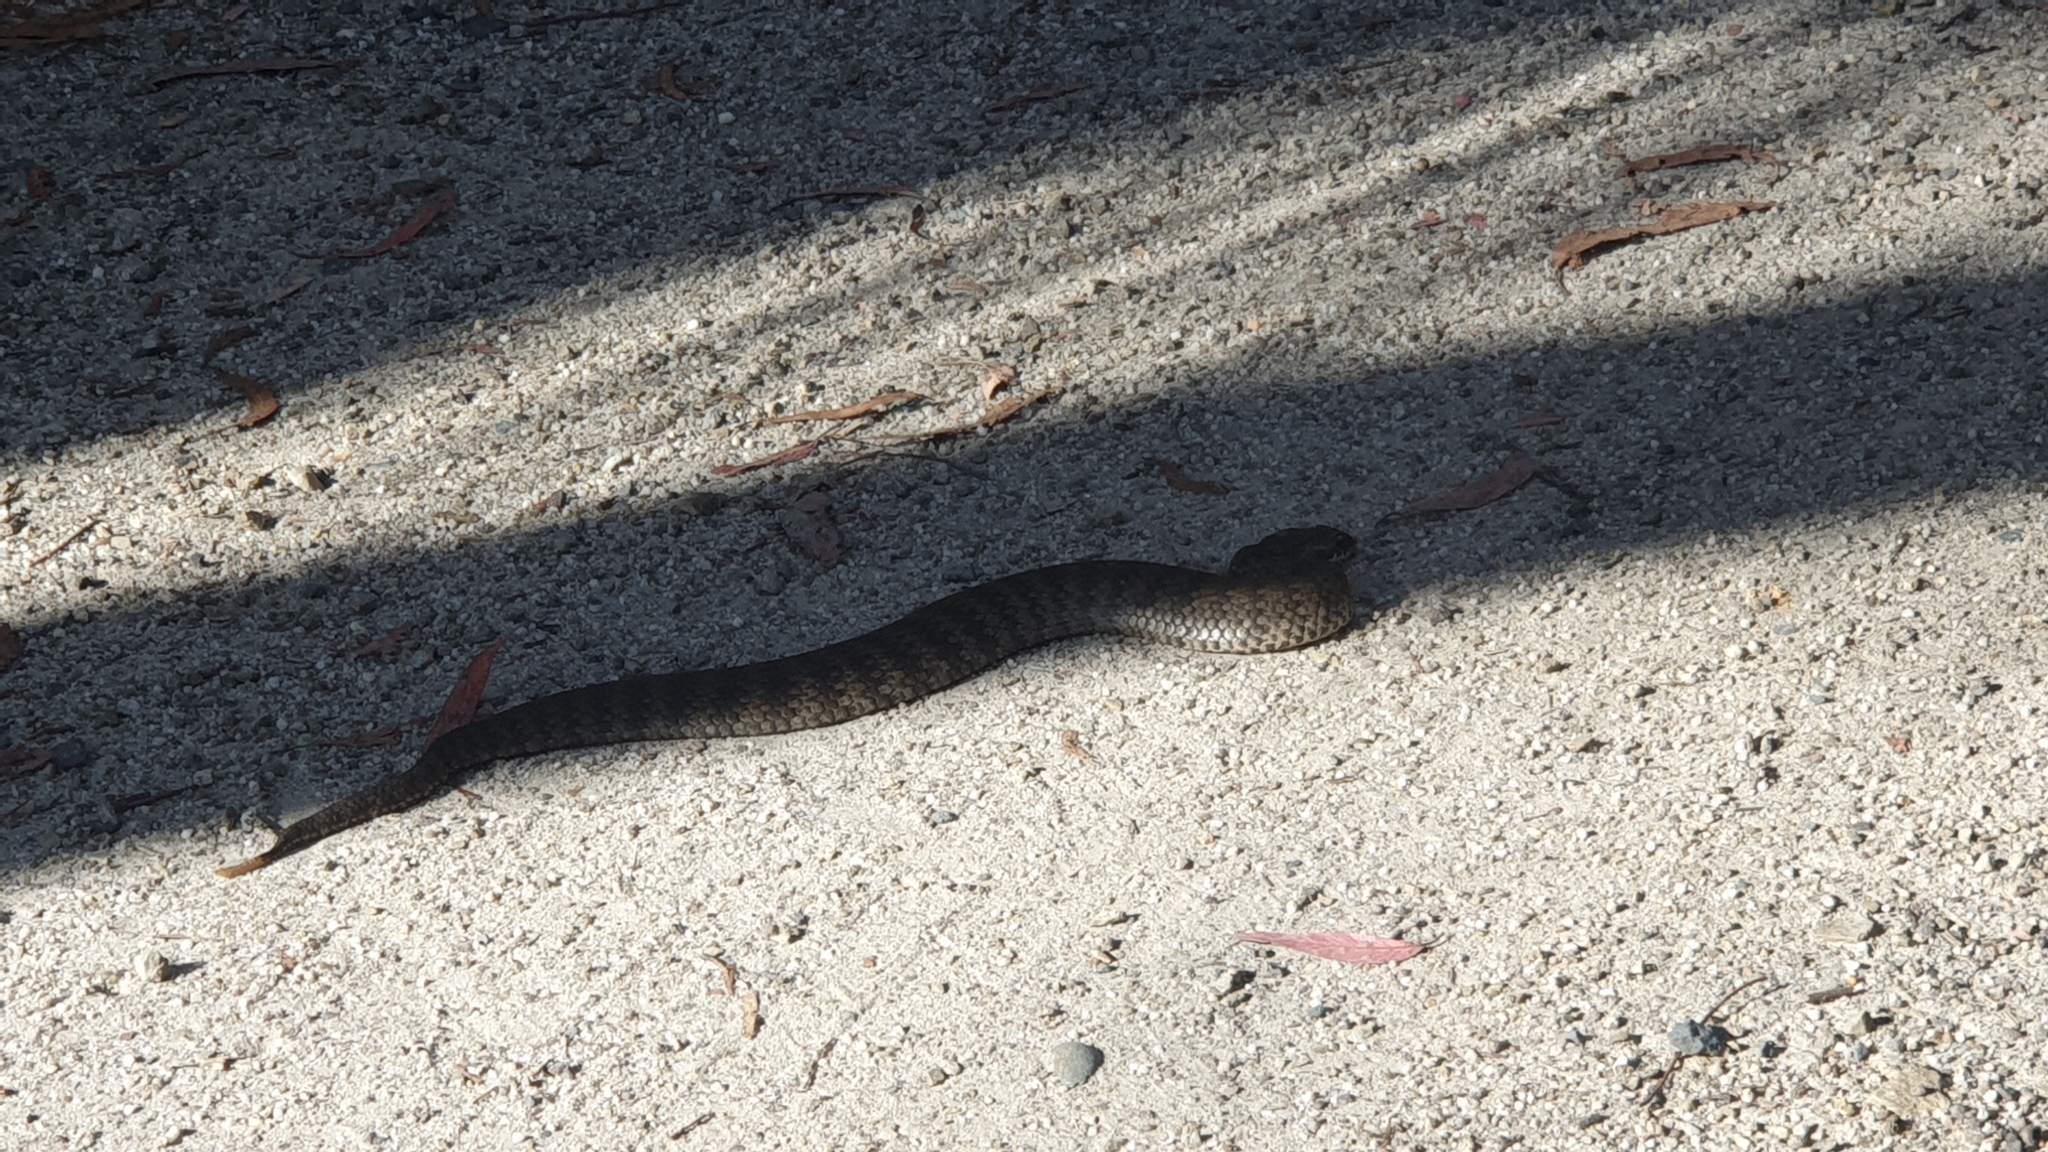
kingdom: Animalia
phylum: Chordata
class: Squamata
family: Elapidae
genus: Acanthophis
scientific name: Acanthophis antarcticus
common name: Common death adder
